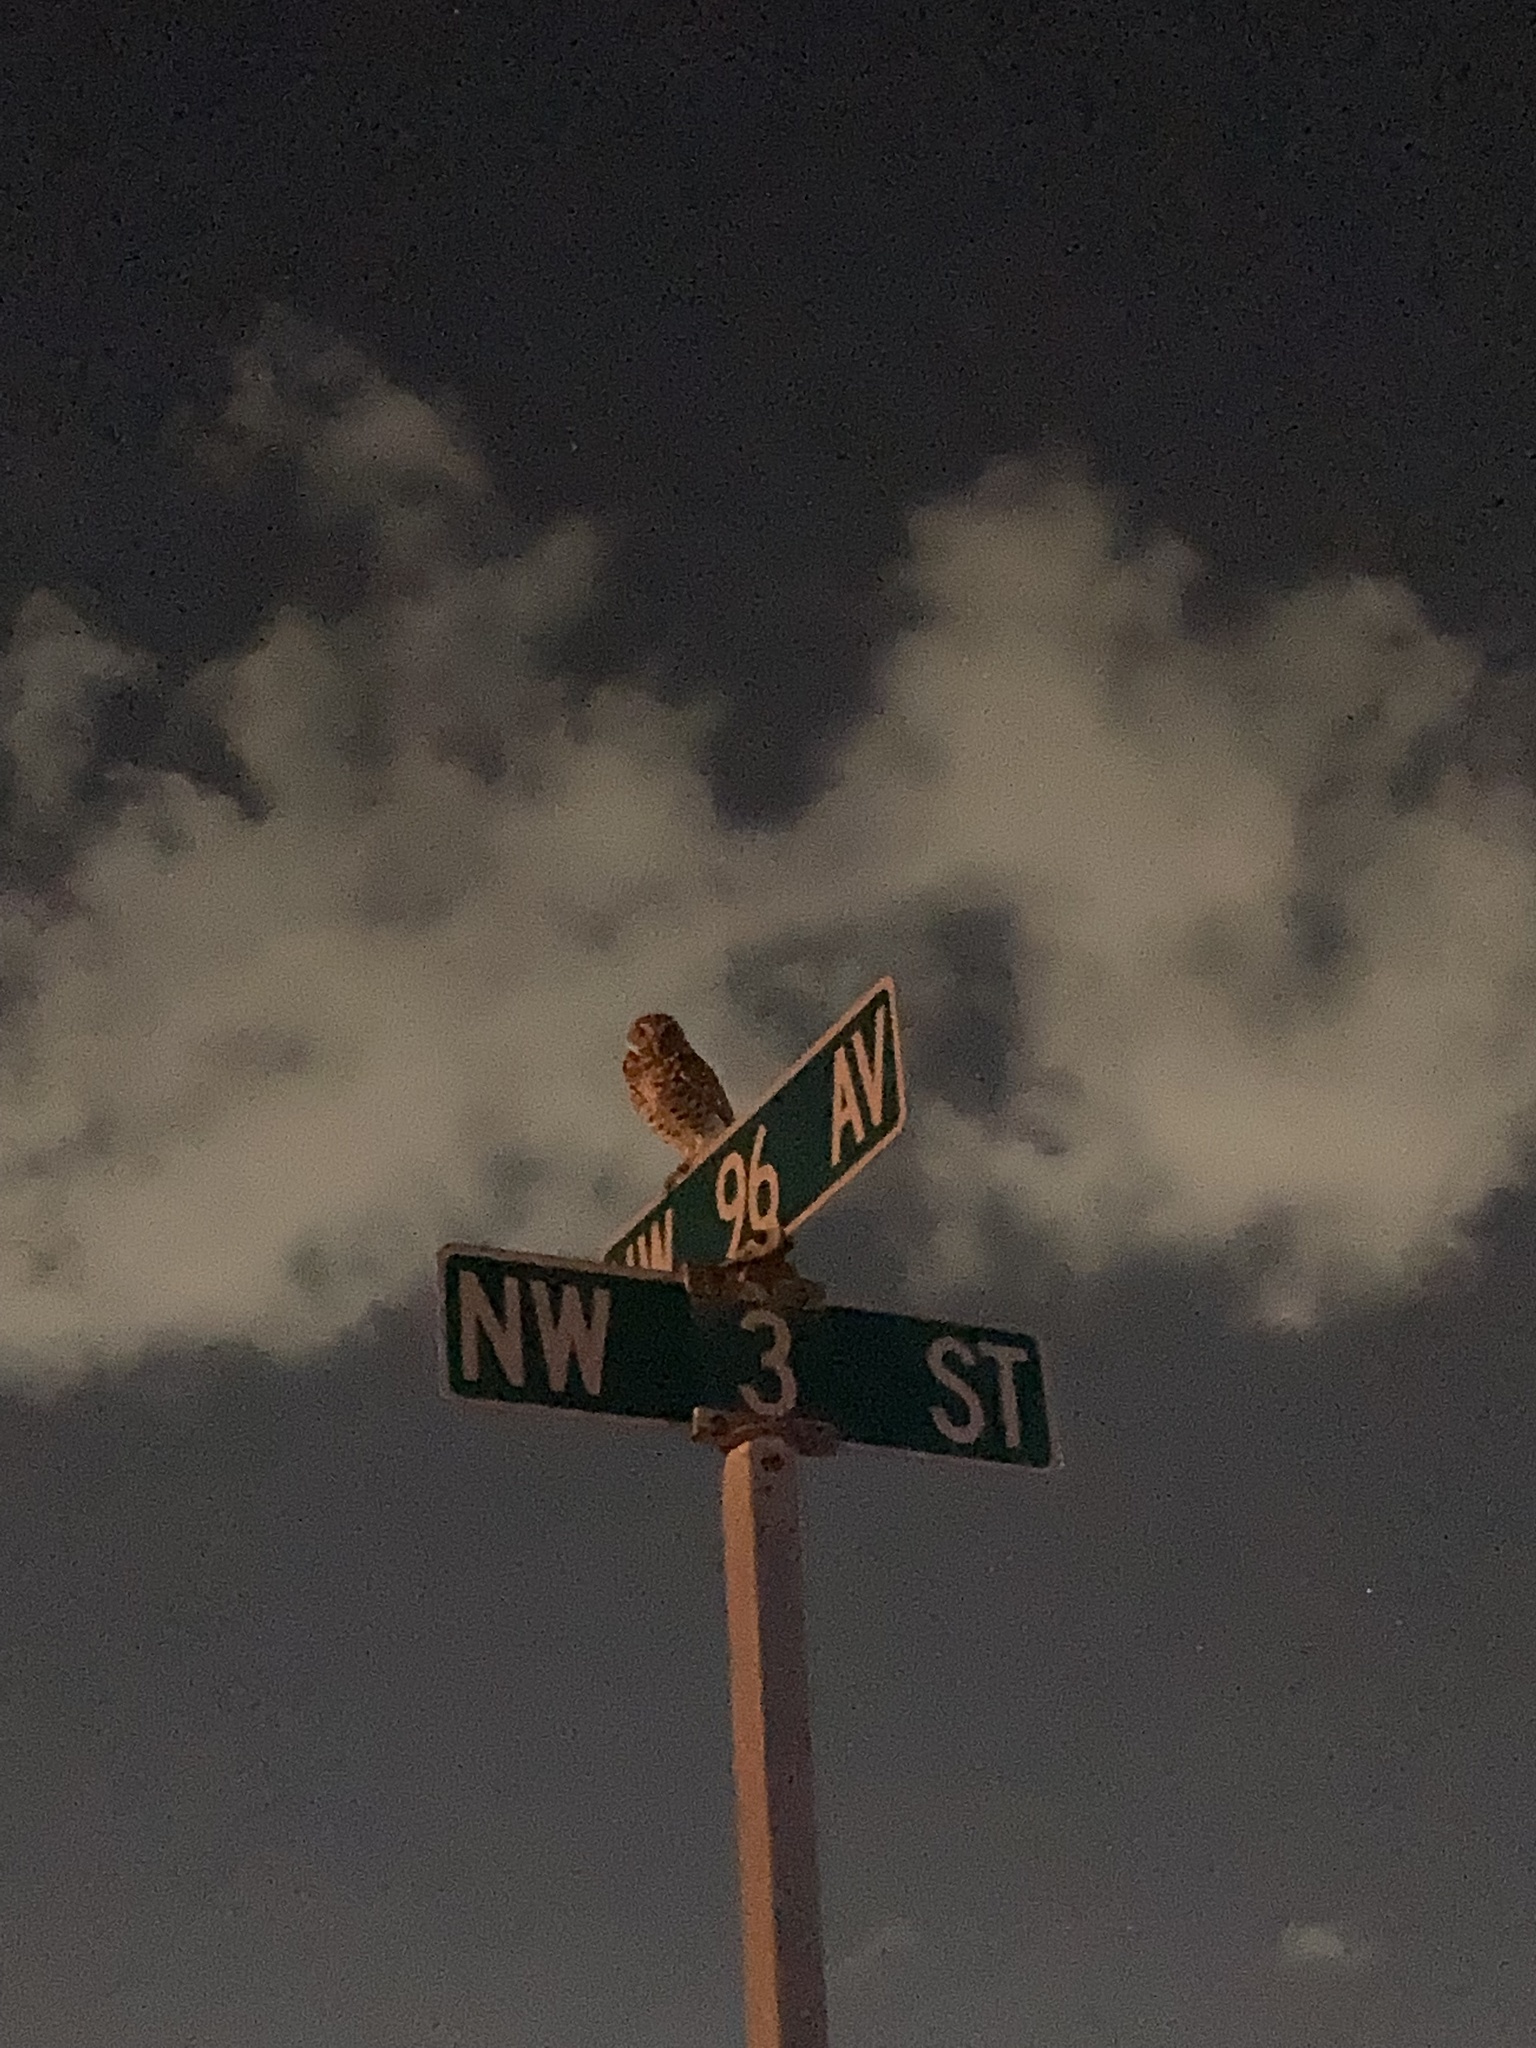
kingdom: Animalia
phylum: Chordata
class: Aves
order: Strigiformes
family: Strigidae
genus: Athene
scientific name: Athene cunicularia
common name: Burrowing owl
